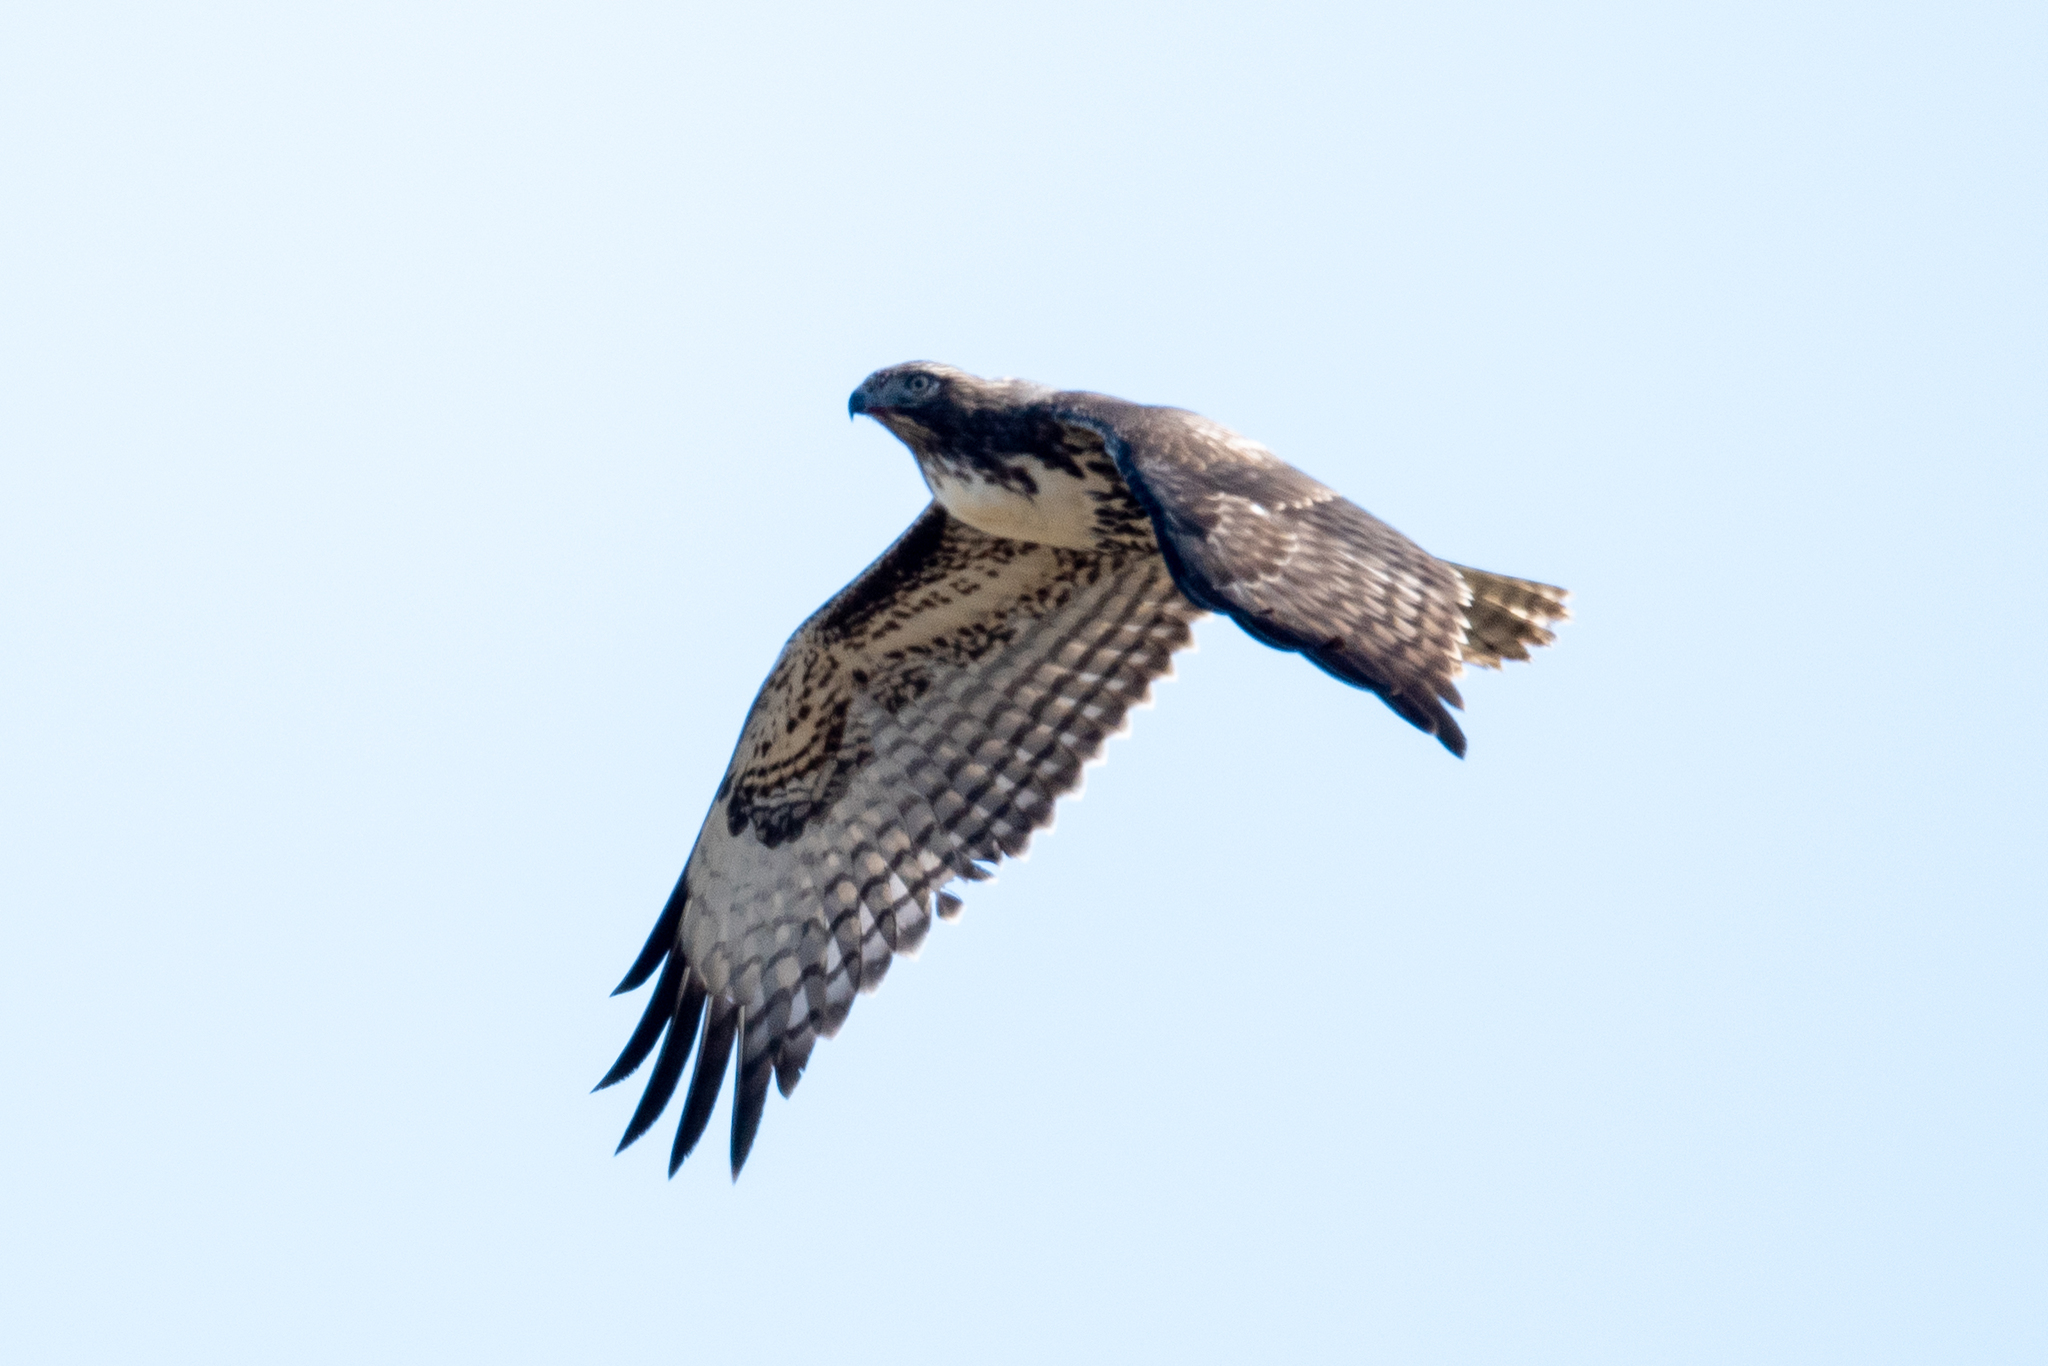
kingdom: Animalia
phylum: Chordata
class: Aves
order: Accipitriformes
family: Accipitridae
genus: Buteo
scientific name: Buteo jamaicensis
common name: Red-tailed hawk
